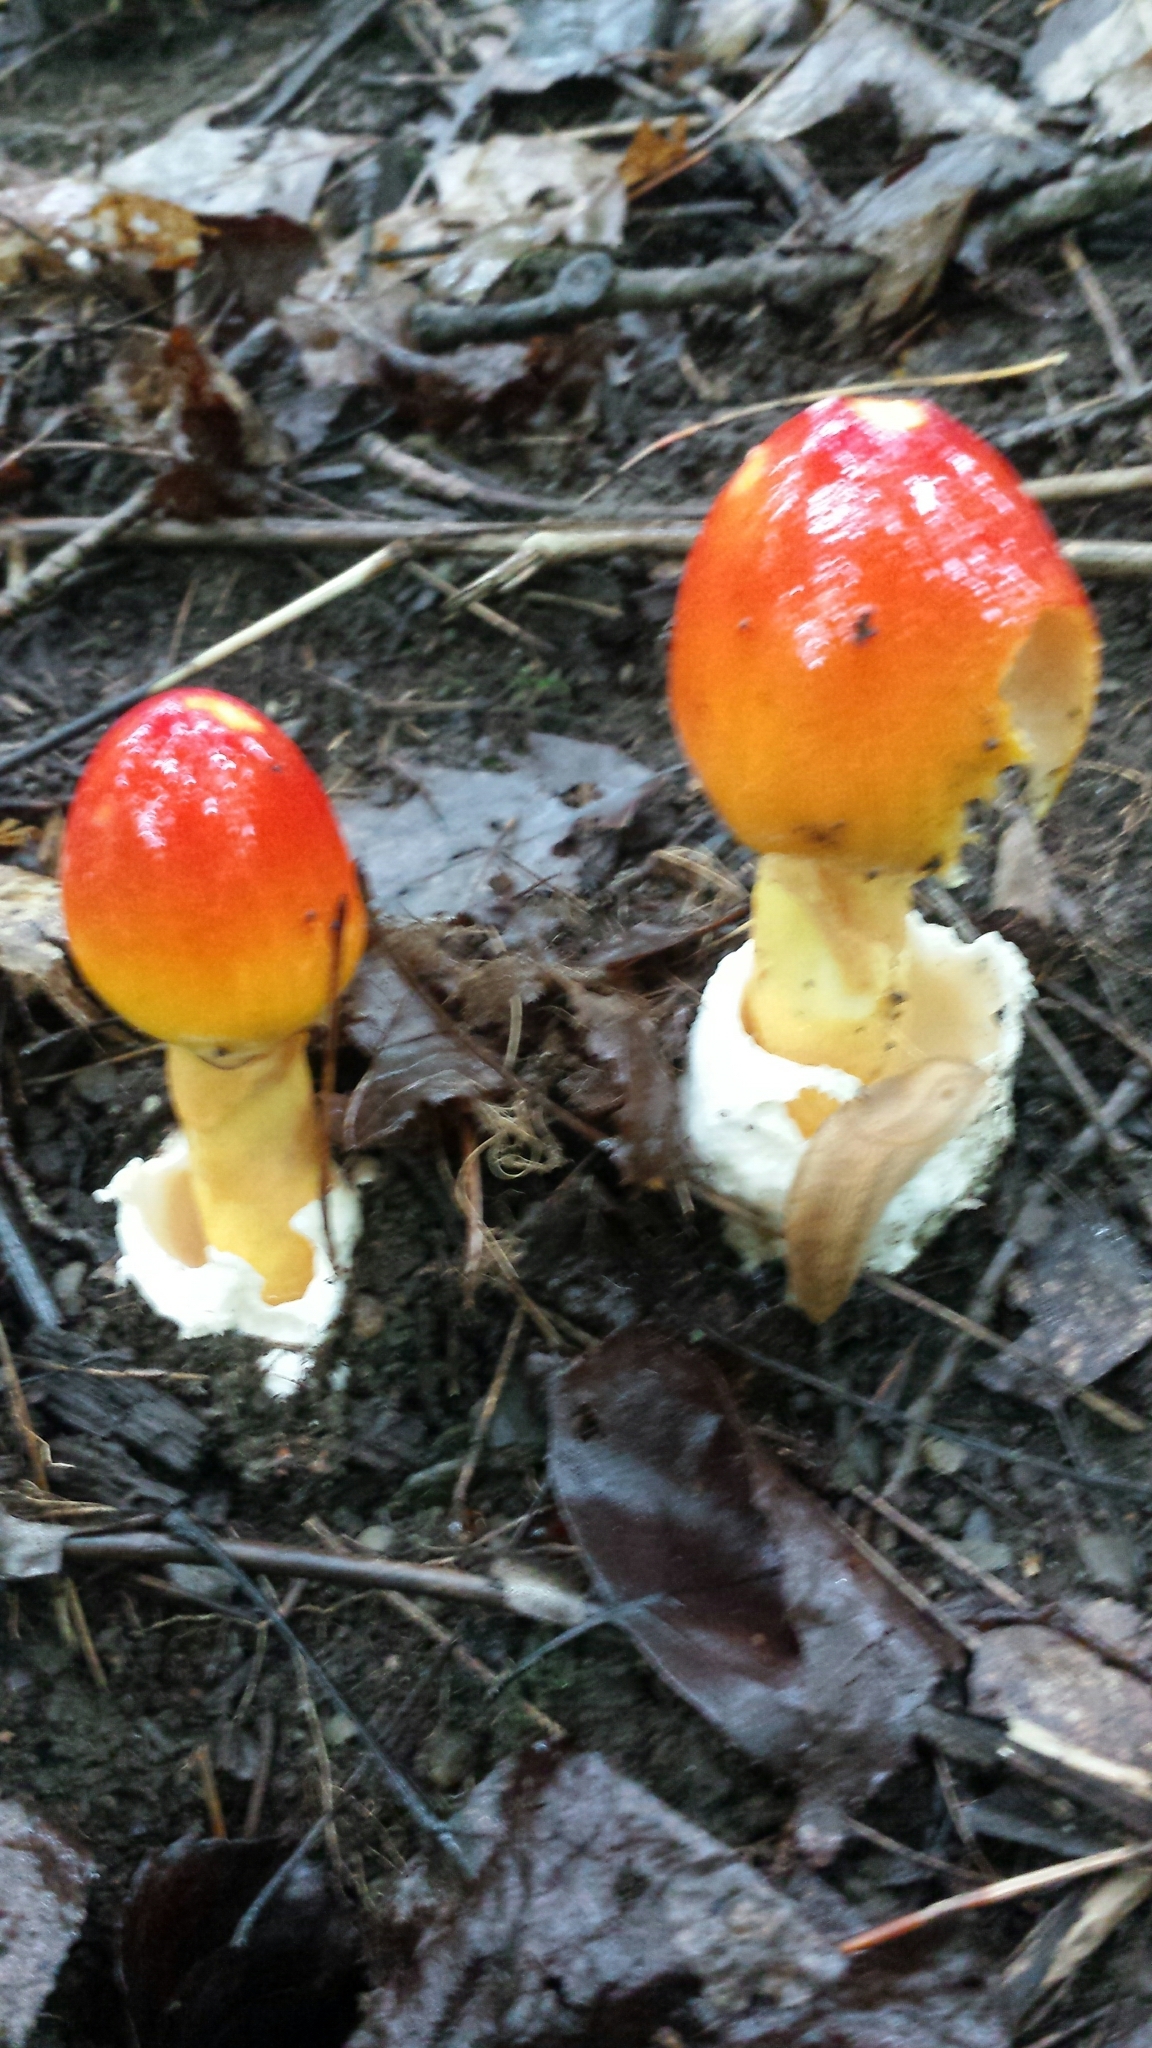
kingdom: Fungi
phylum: Basidiomycota
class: Agaricomycetes
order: Agaricales
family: Amanitaceae
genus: Amanita
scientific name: Amanita jacksonii
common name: Jackson's slender caesar
